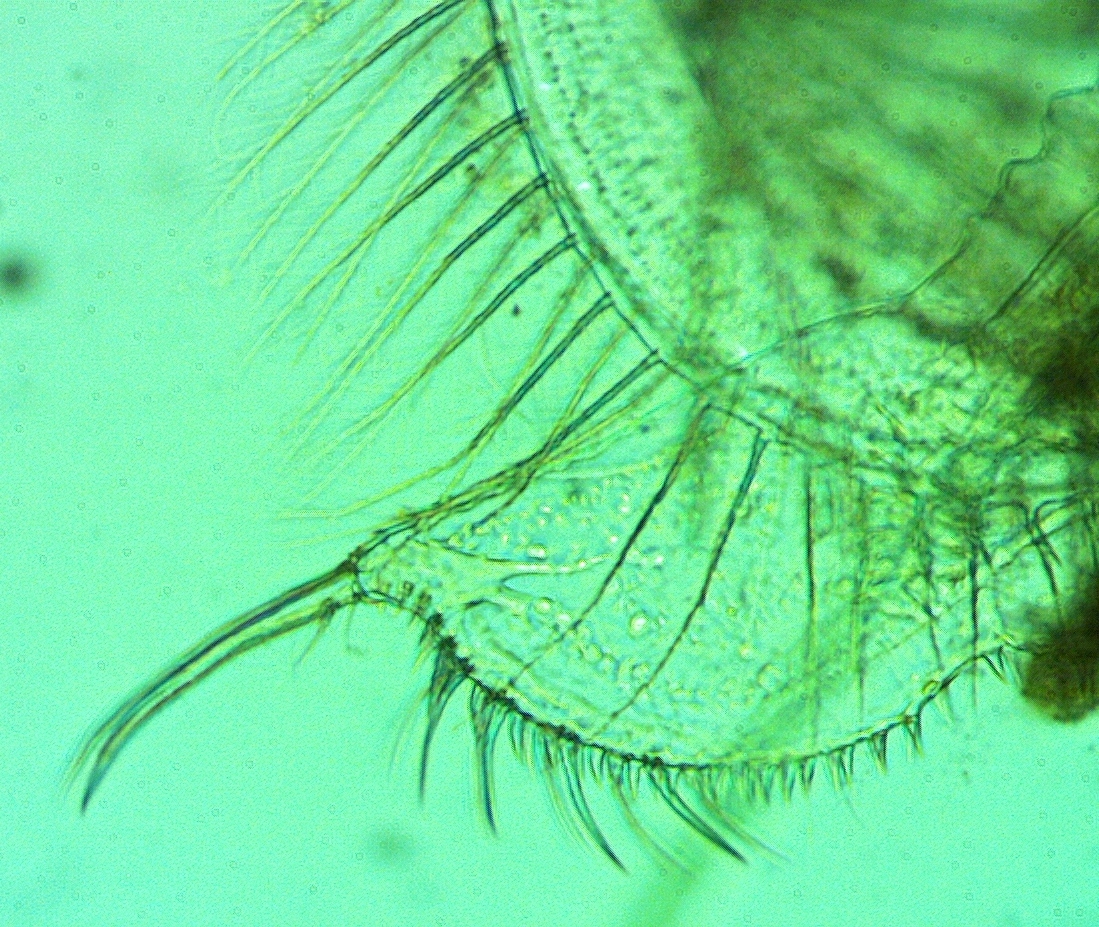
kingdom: Animalia
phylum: Arthropoda
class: Branchiopoda
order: Diplostraca
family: Ilyocryptidae
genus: Ilyocryptus
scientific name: Ilyocryptus spinifer
